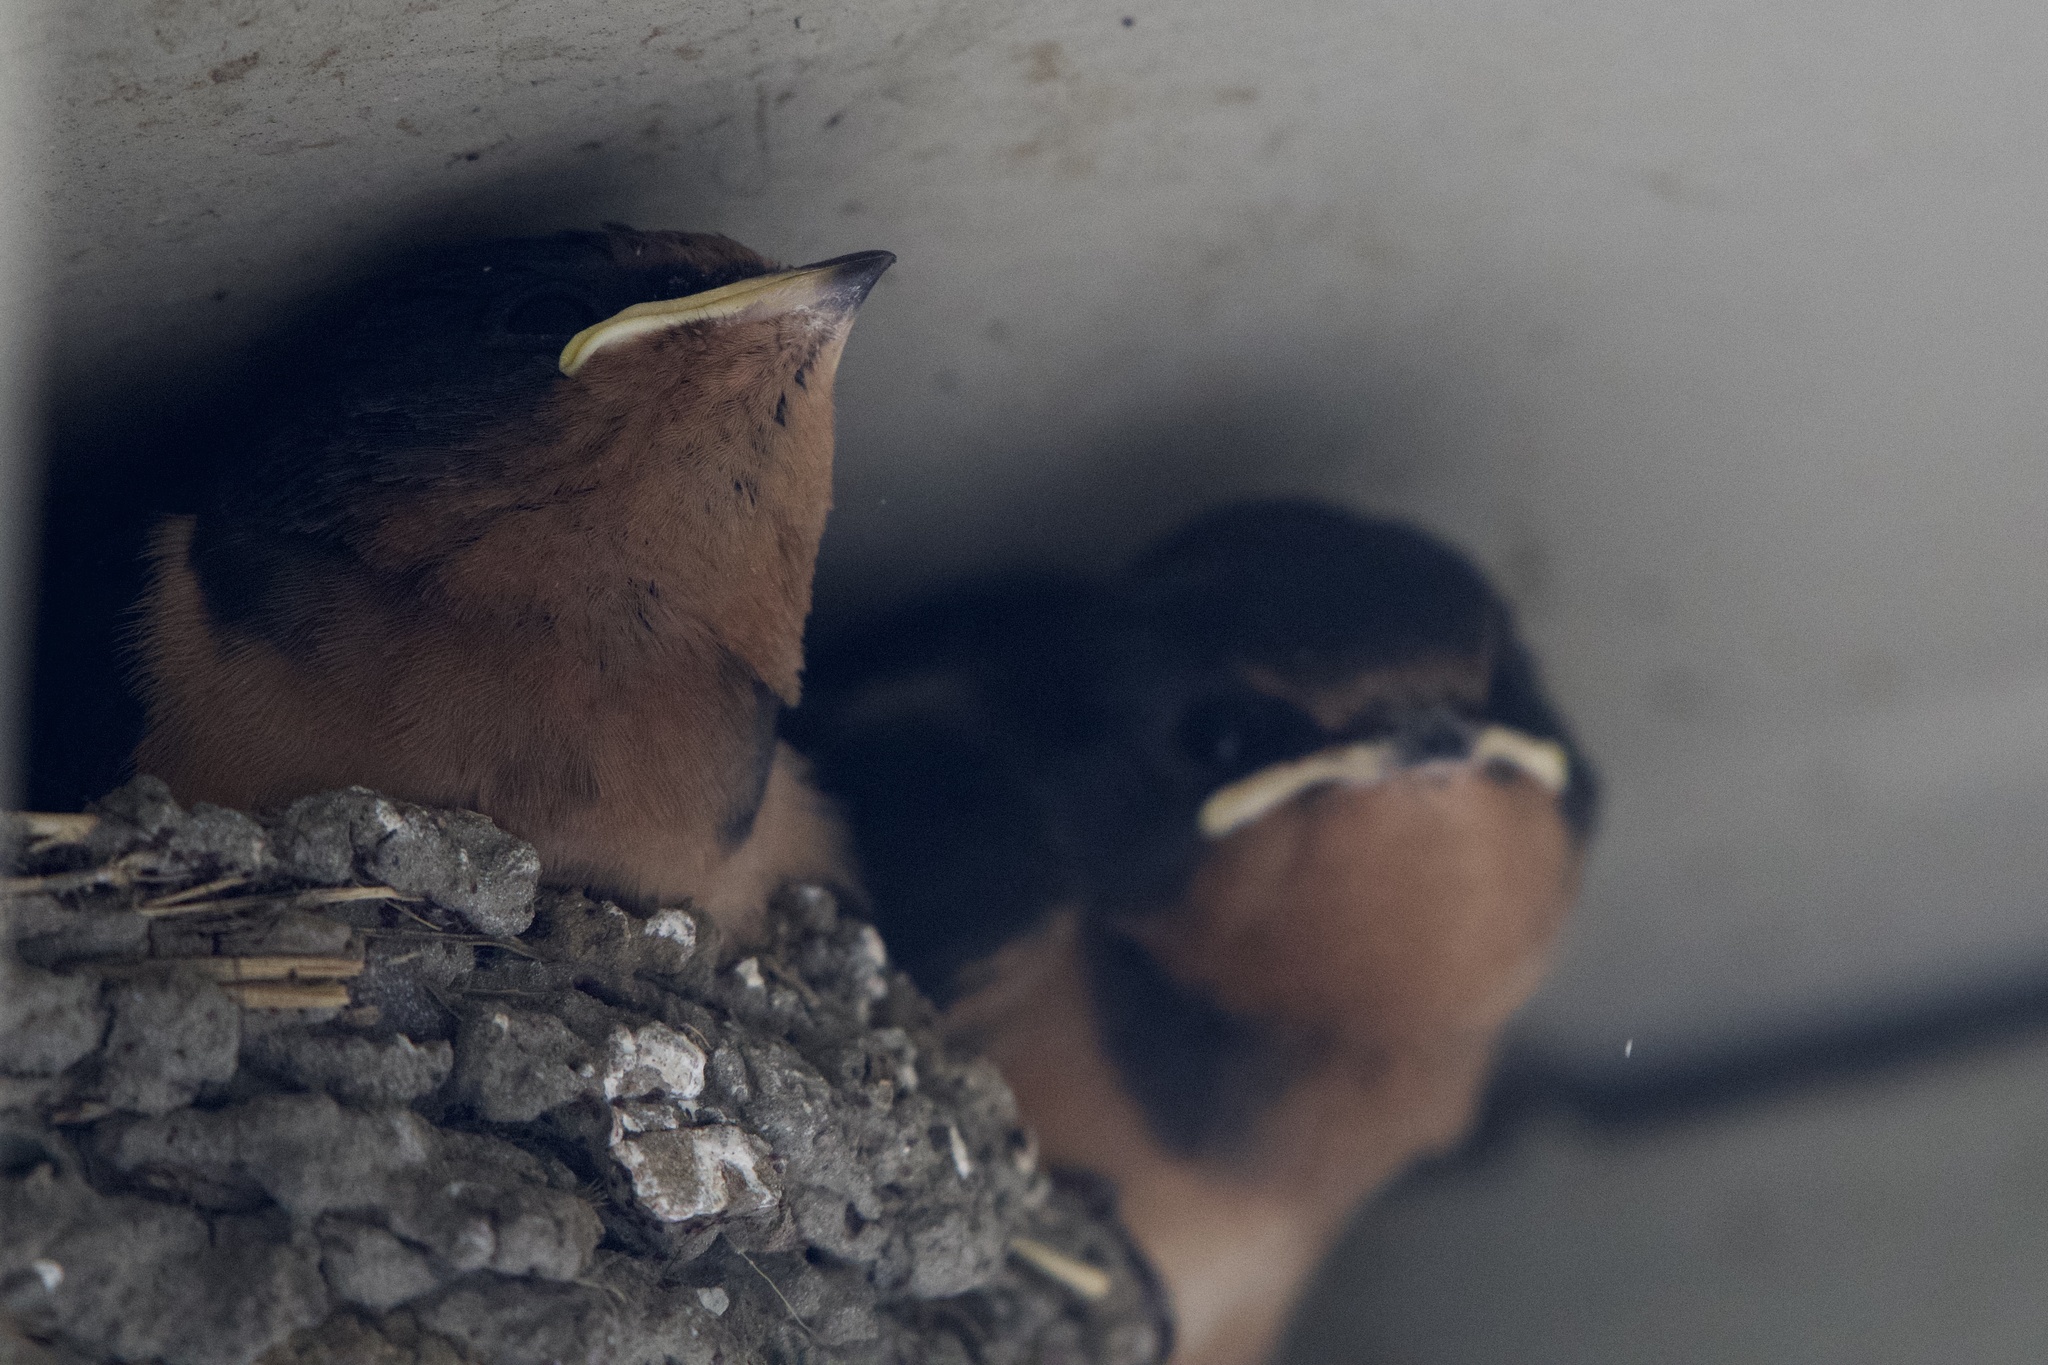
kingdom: Animalia
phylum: Chordata
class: Aves
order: Passeriformes
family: Hirundinidae
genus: Hirundo
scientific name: Hirundo rustica
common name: Barn swallow
